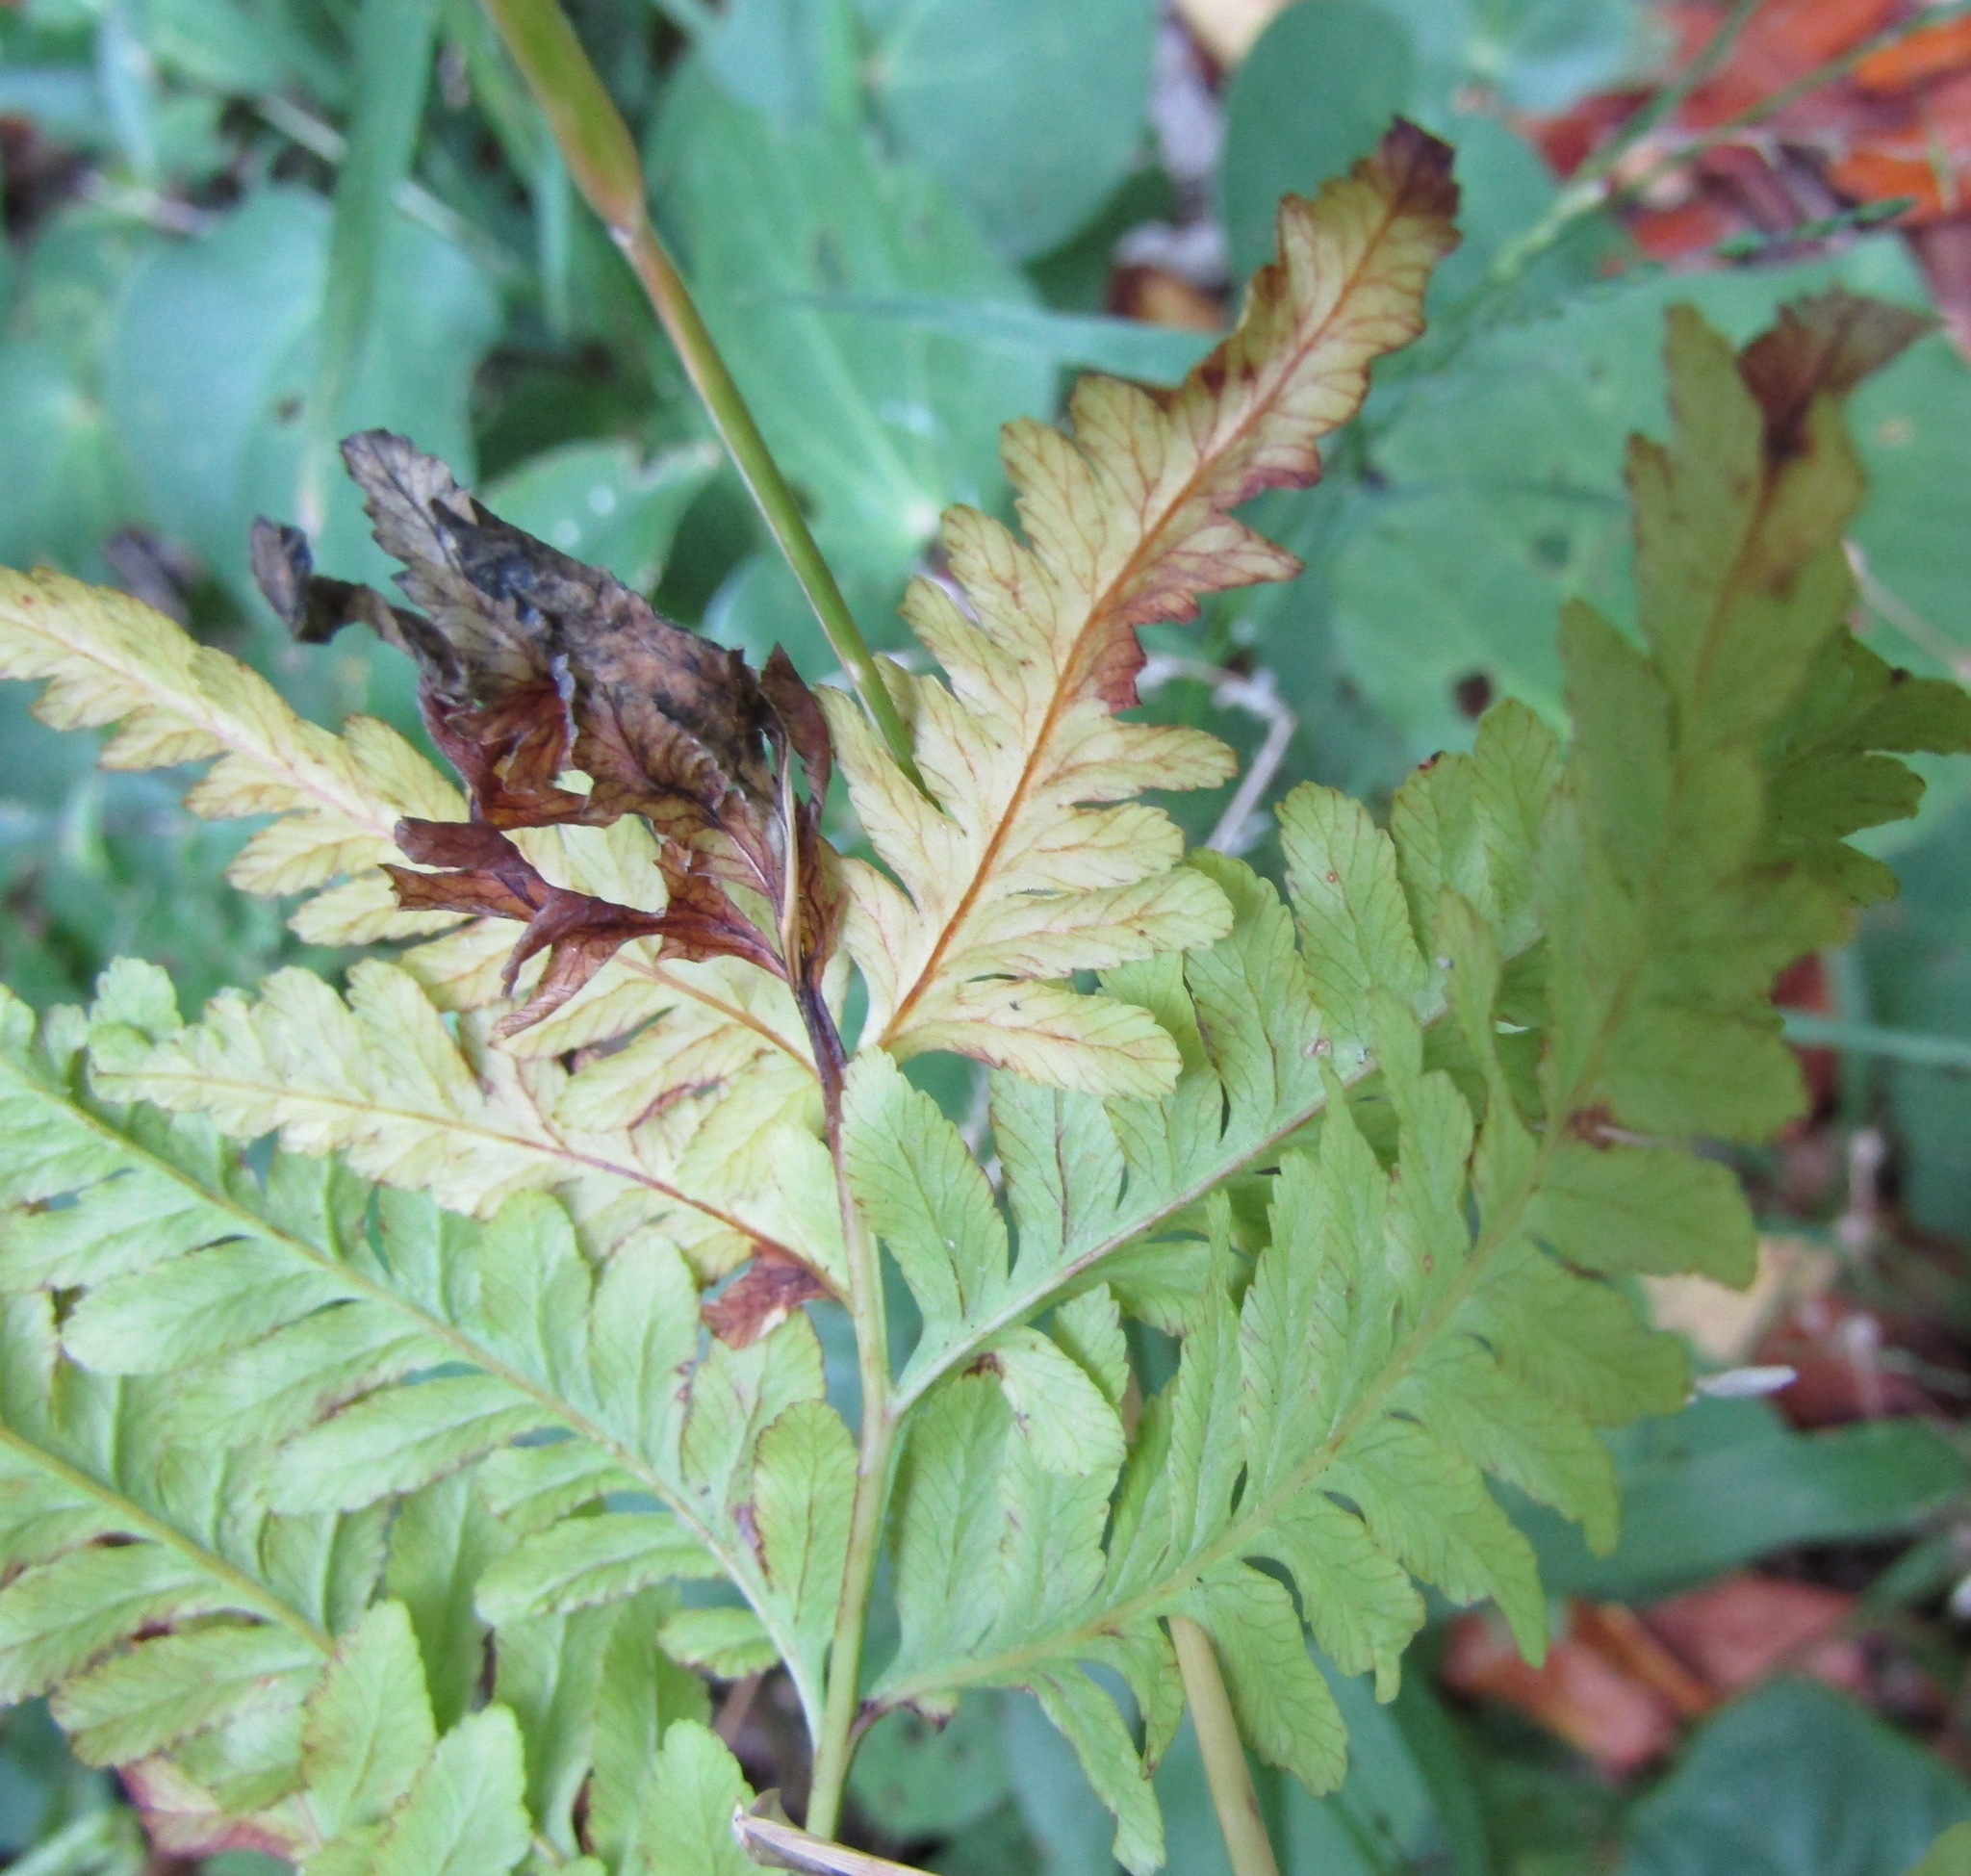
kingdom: Plantae
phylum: Tracheophyta
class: Polypodiopsida
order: Polypodiales
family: Pteridaceae
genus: Pteris
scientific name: Pteris tremula
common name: Australian brake
